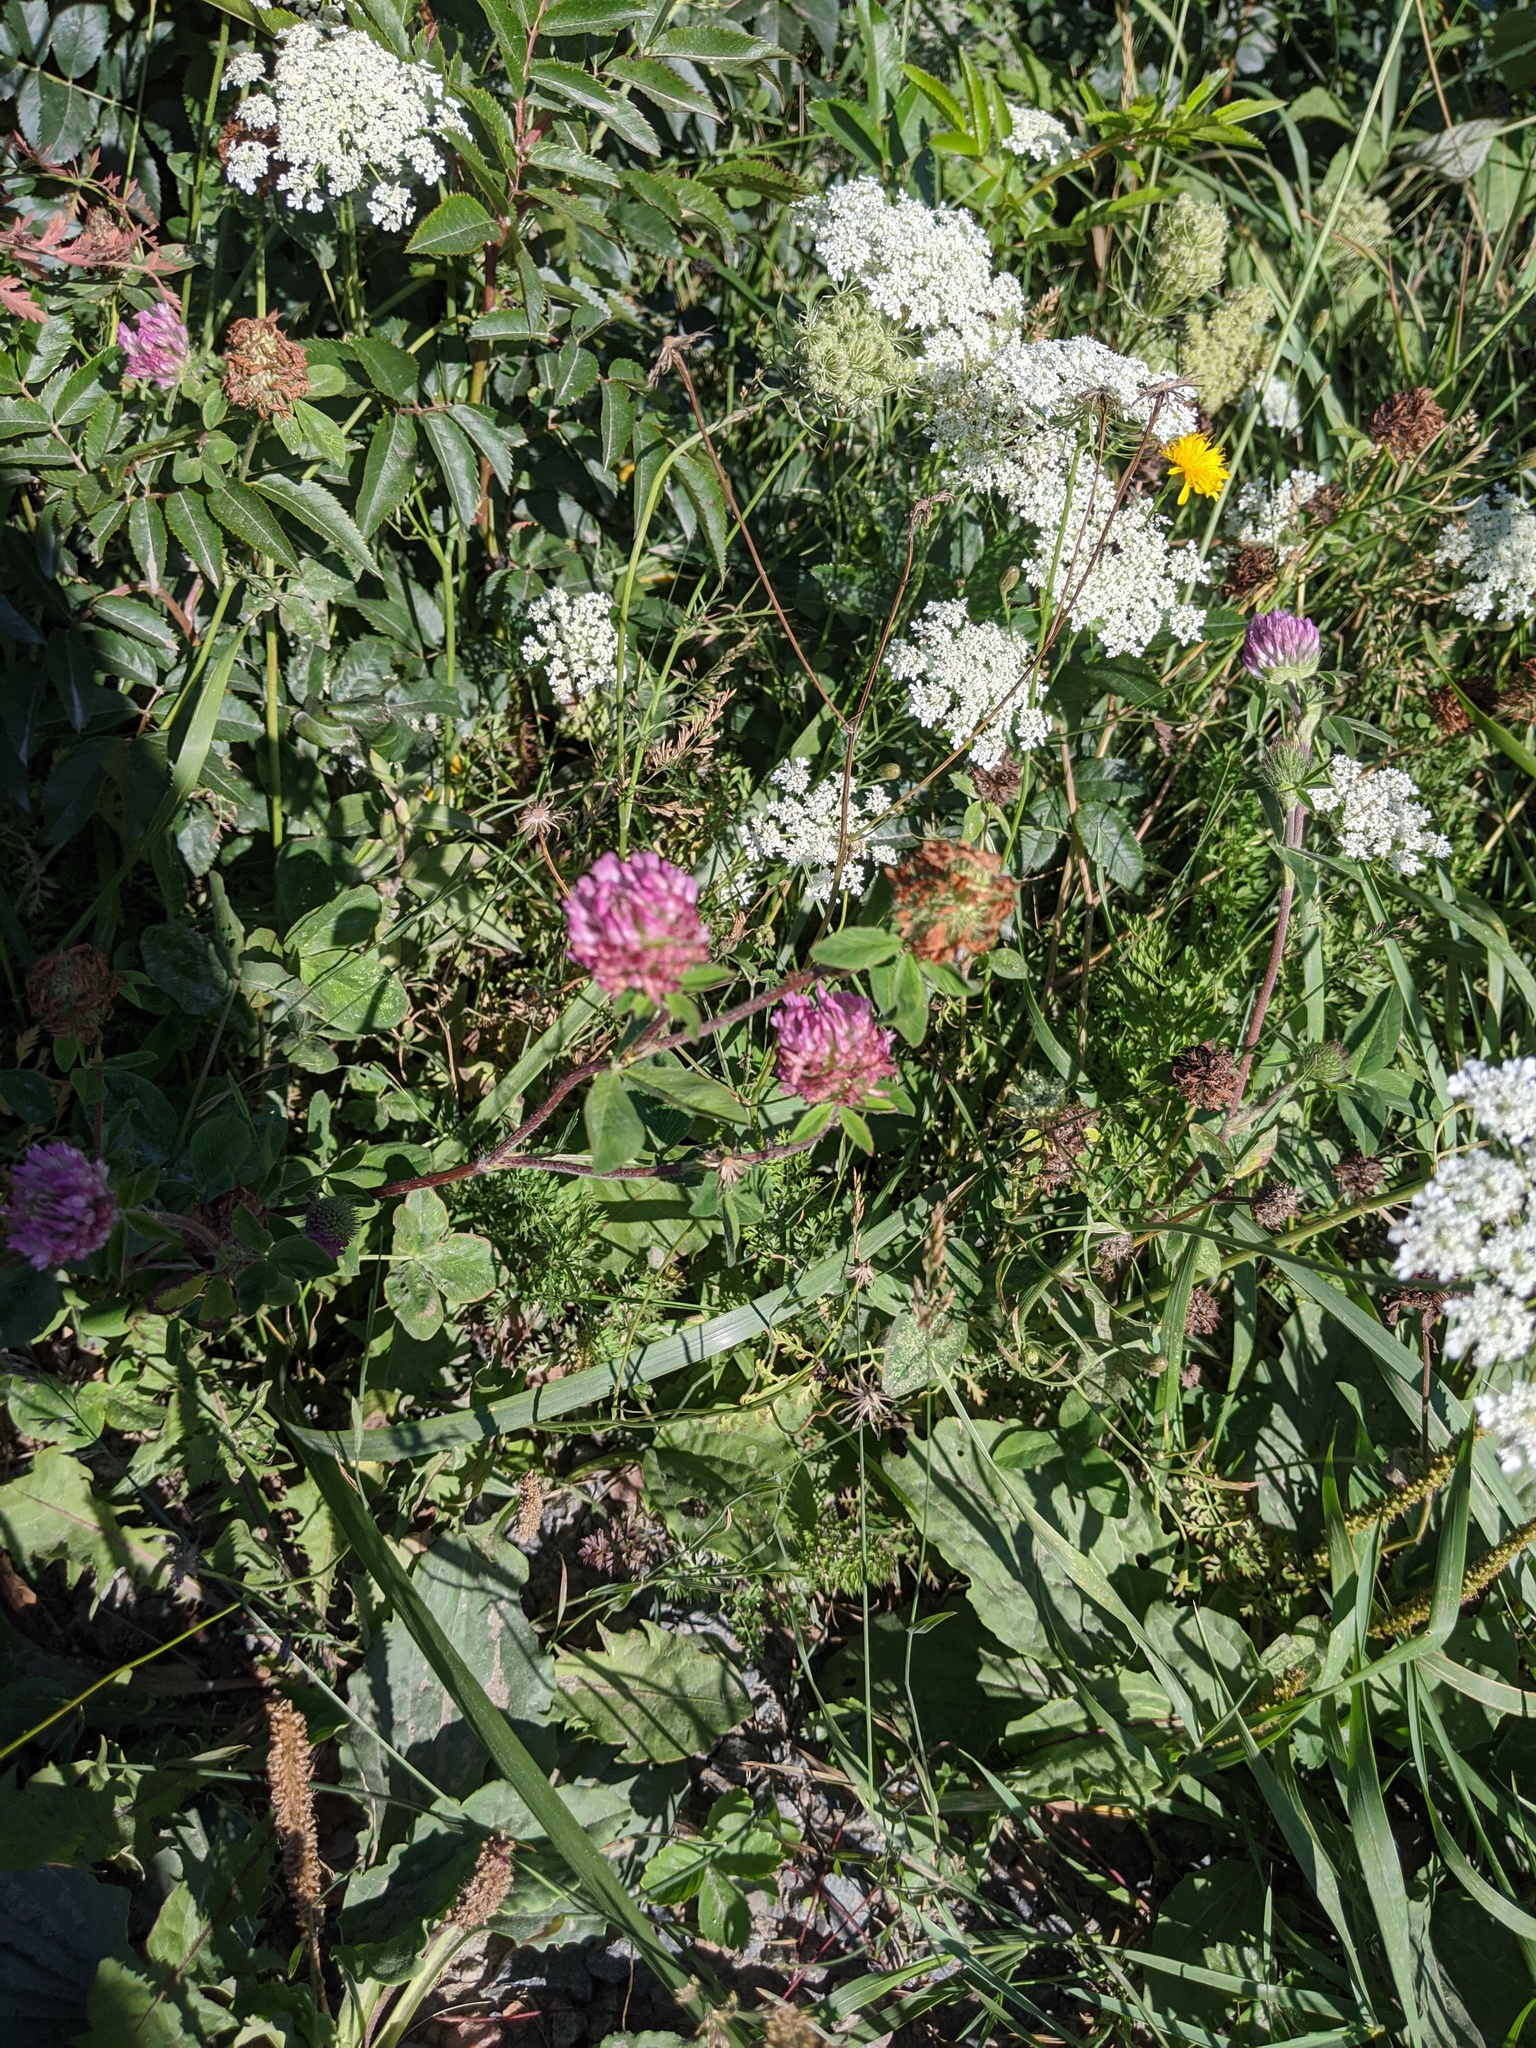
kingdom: Plantae
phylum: Tracheophyta
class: Magnoliopsida
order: Fabales
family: Fabaceae
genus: Trifolium
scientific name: Trifolium pratense
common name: Red clover
